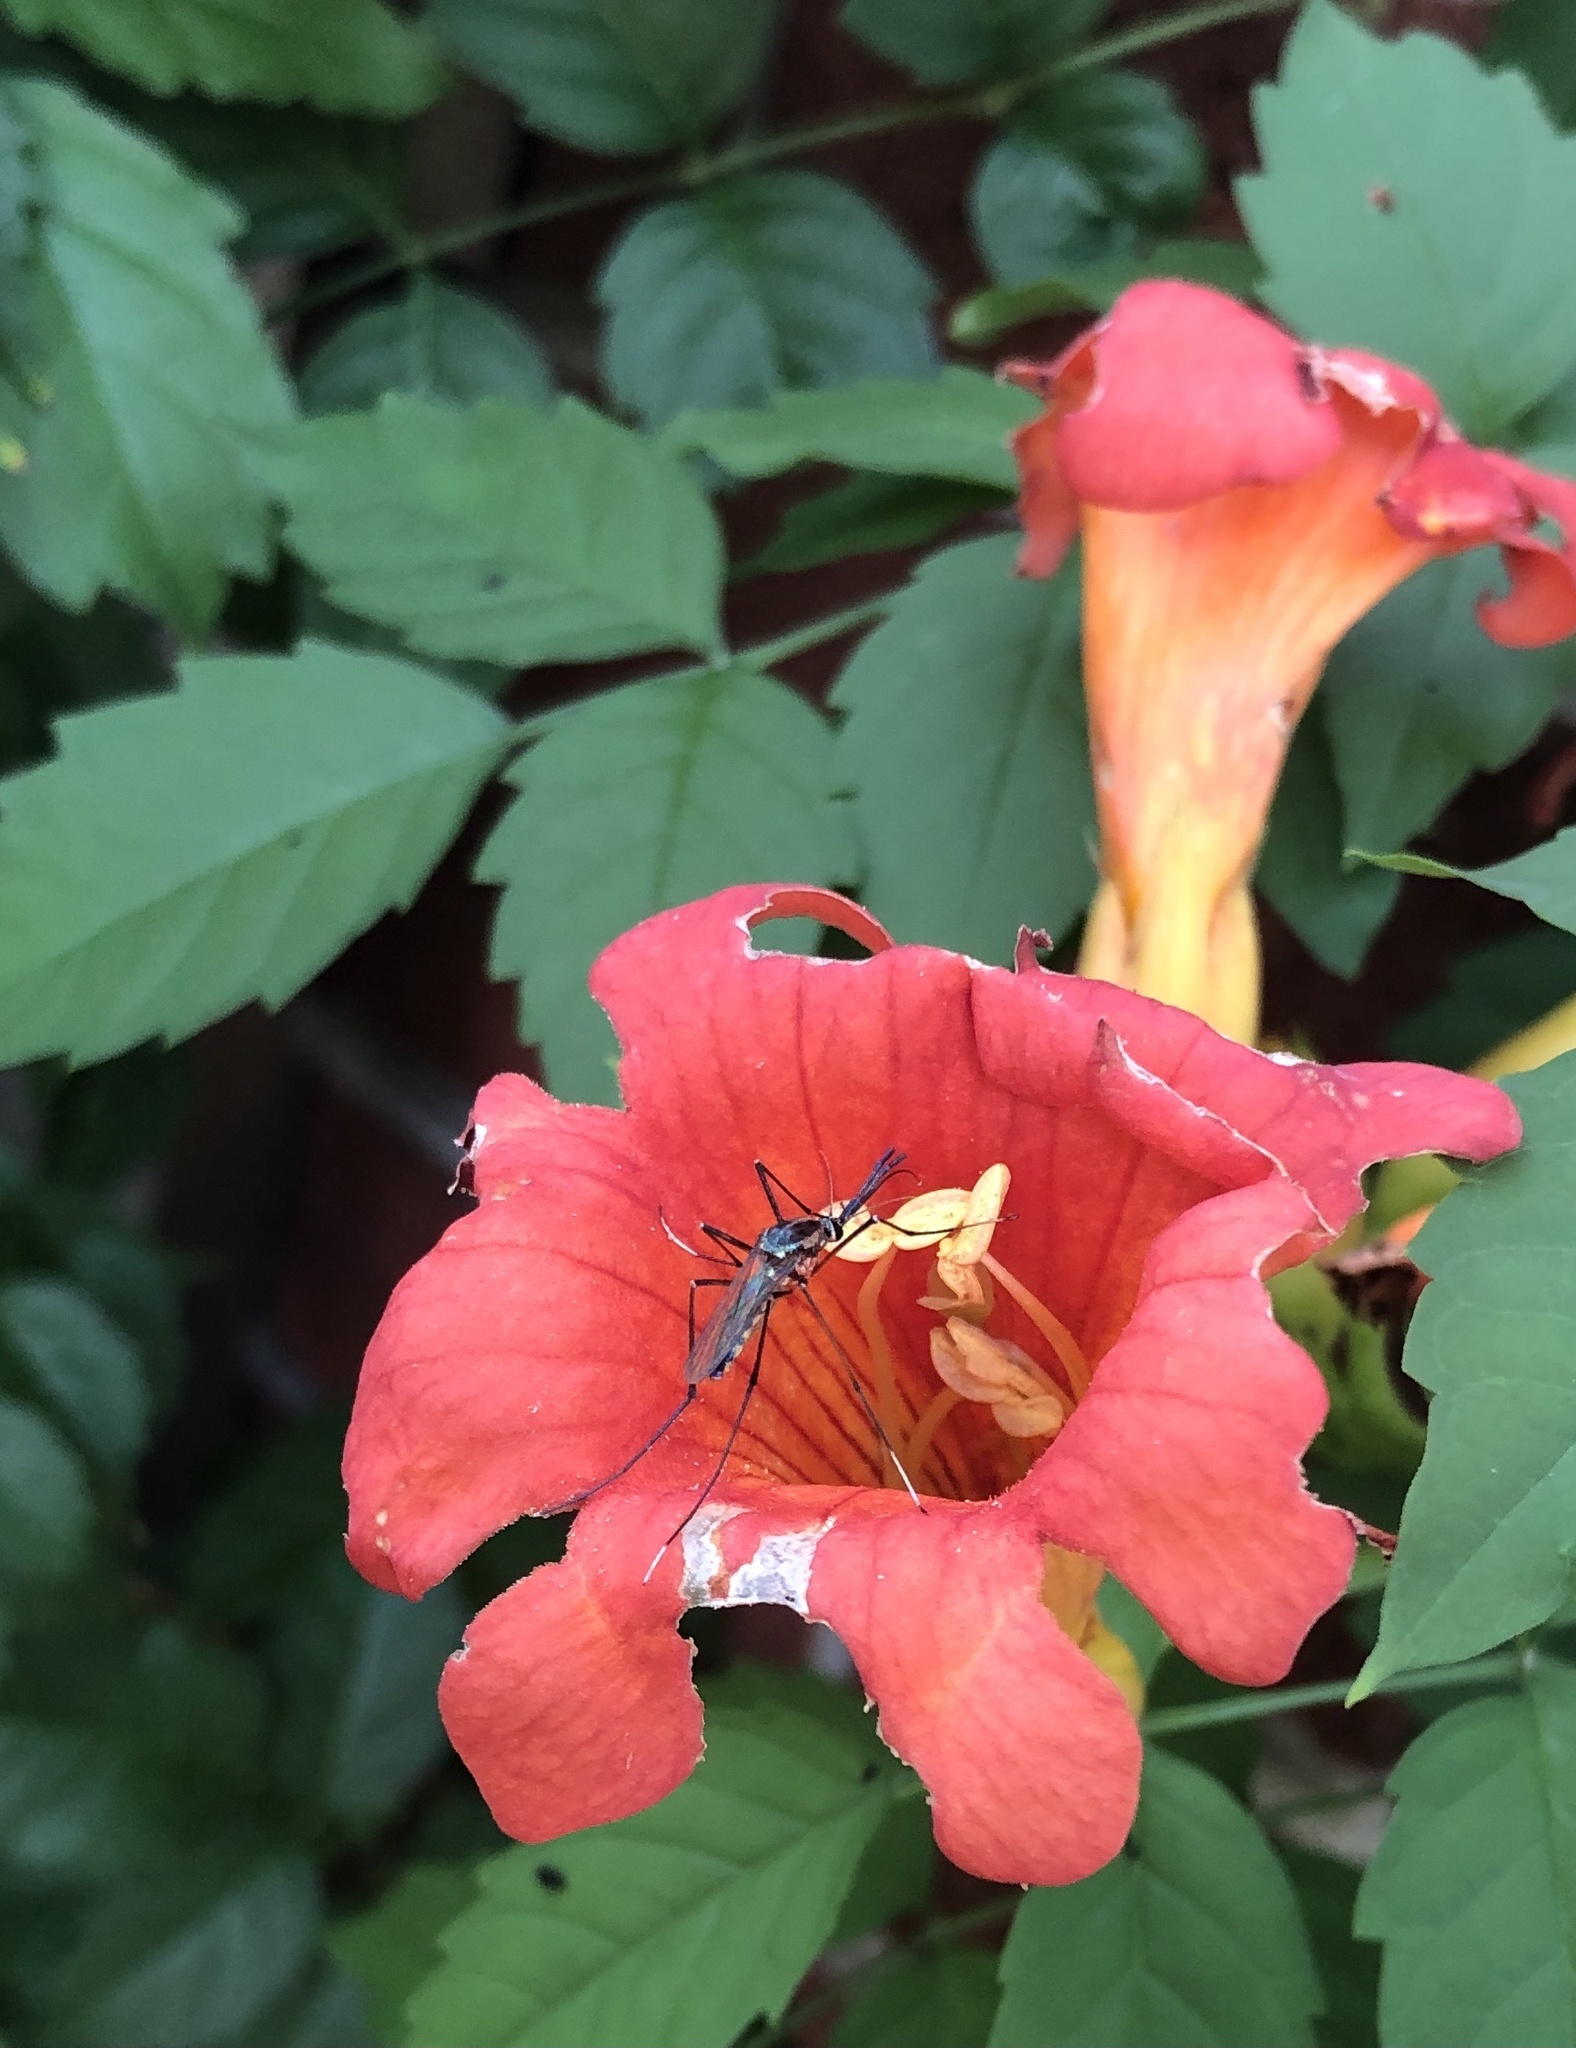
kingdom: Animalia
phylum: Arthropoda
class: Insecta
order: Diptera
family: Culicidae
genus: Toxorhynchites
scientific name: Toxorhynchites rutilus
